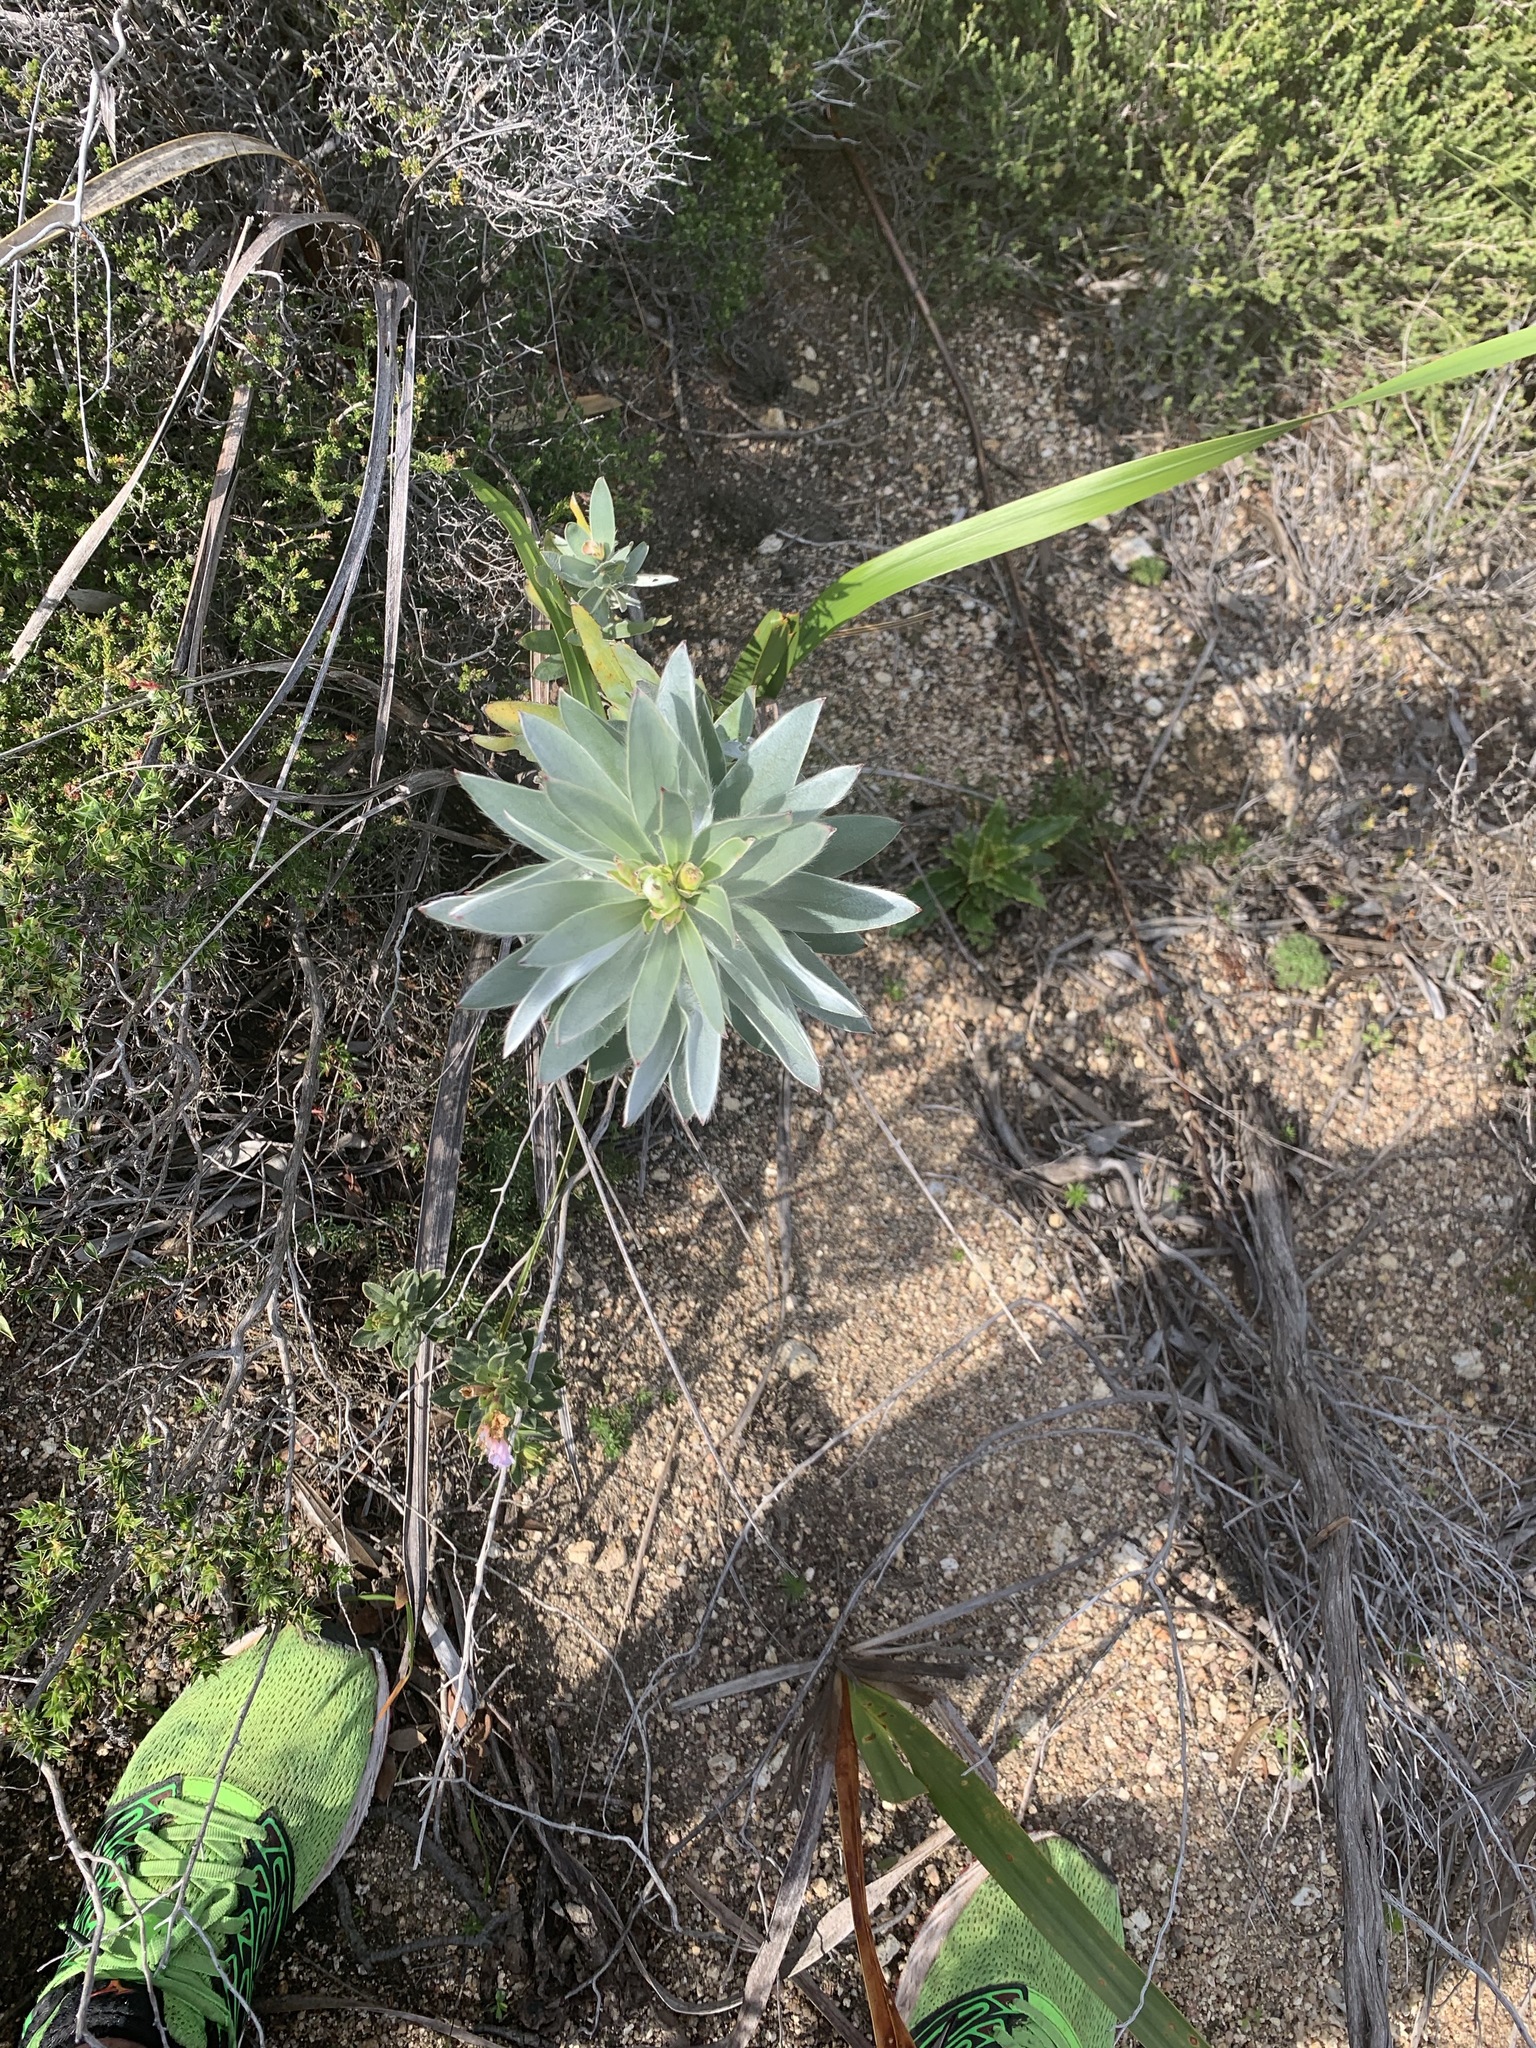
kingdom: Plantae
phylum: Tracheophyta
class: Magnoliopsida
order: Proteales
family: Proteaceae
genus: Leucadendron
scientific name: Leucadendron argenteum
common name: Cape silver tree
